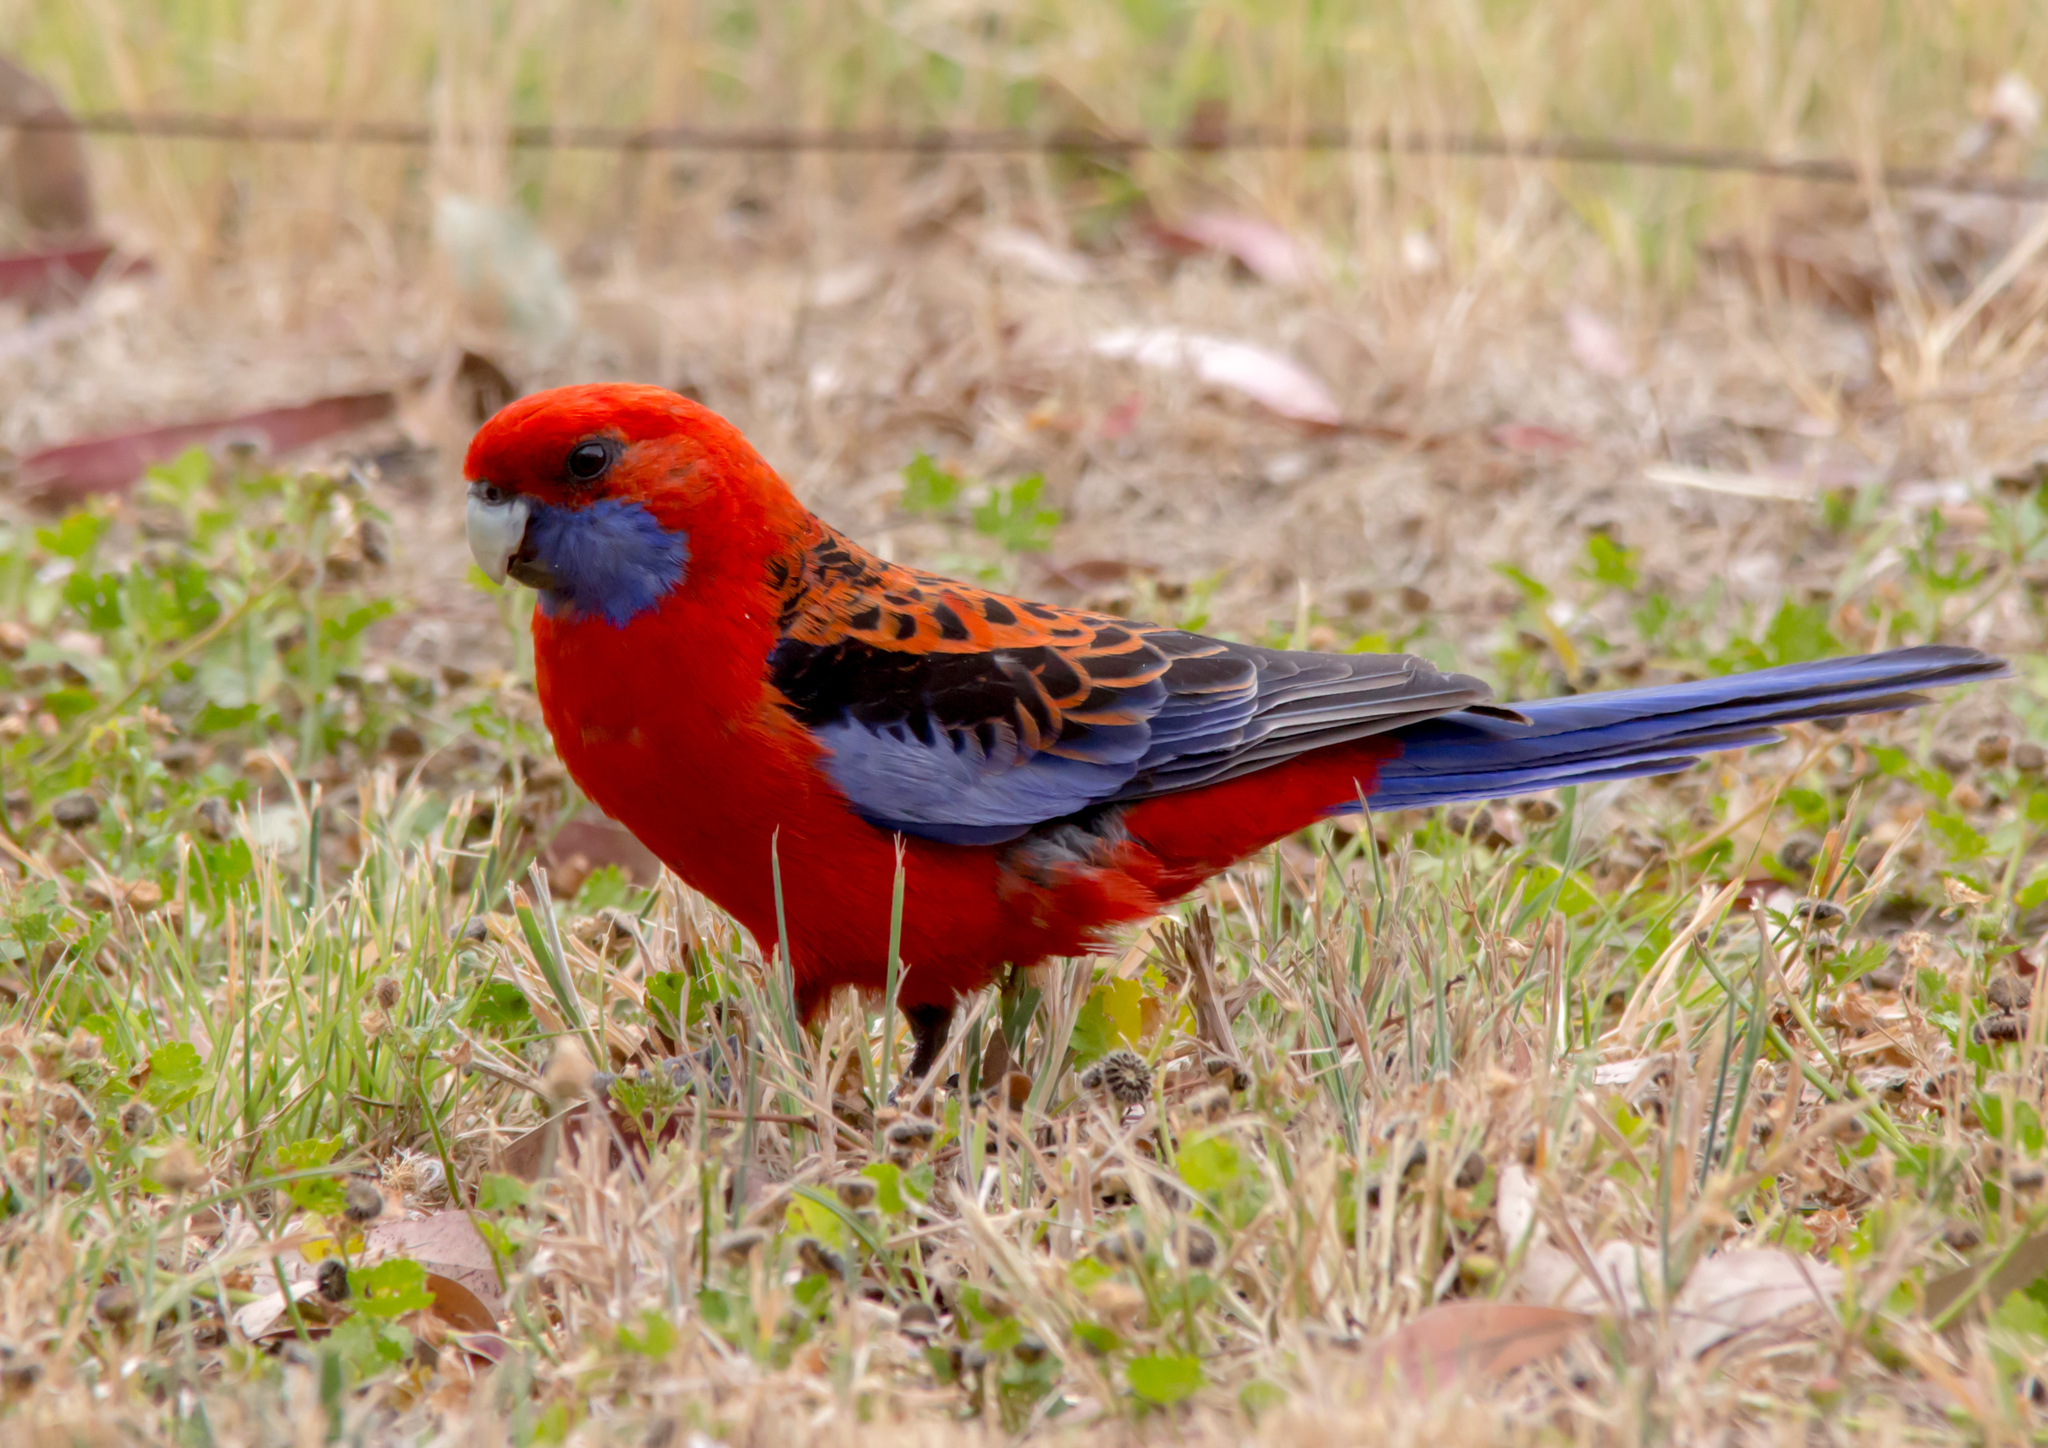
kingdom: Animalia
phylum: Chordata
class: Aves
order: Psittaciformes
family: Psittacidae
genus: Platycercus
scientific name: Platycercus elegans
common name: Crimson rosella
